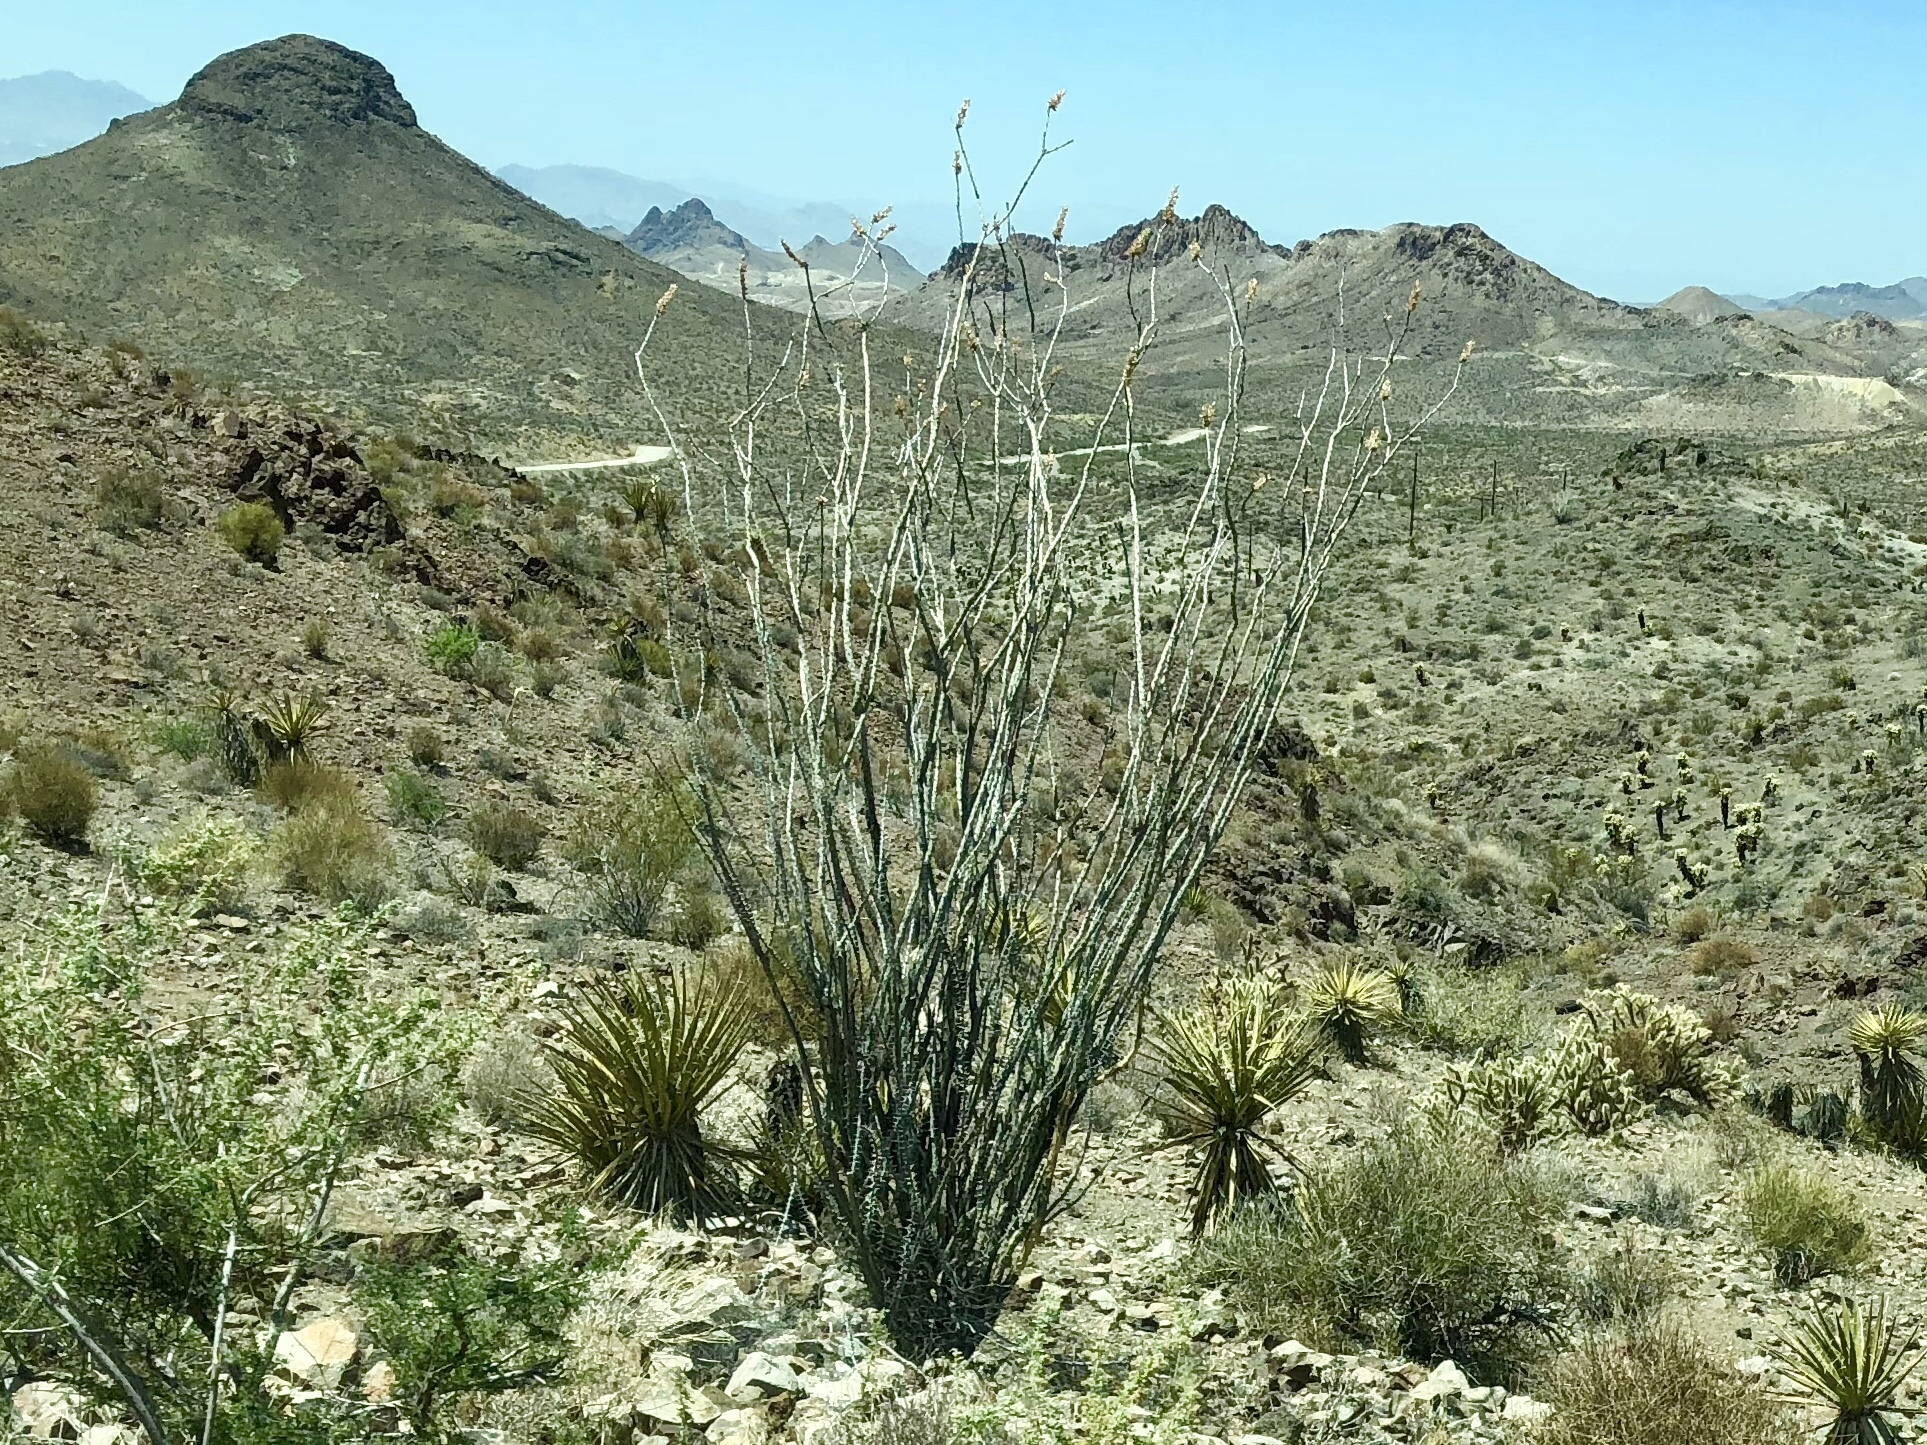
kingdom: Plantae
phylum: Tracheophyta
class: Magnoliopsida
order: Ericales
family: Fouquieriaceae
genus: Fouquieria
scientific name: Fouquieria splendens
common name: Vine-cactus
